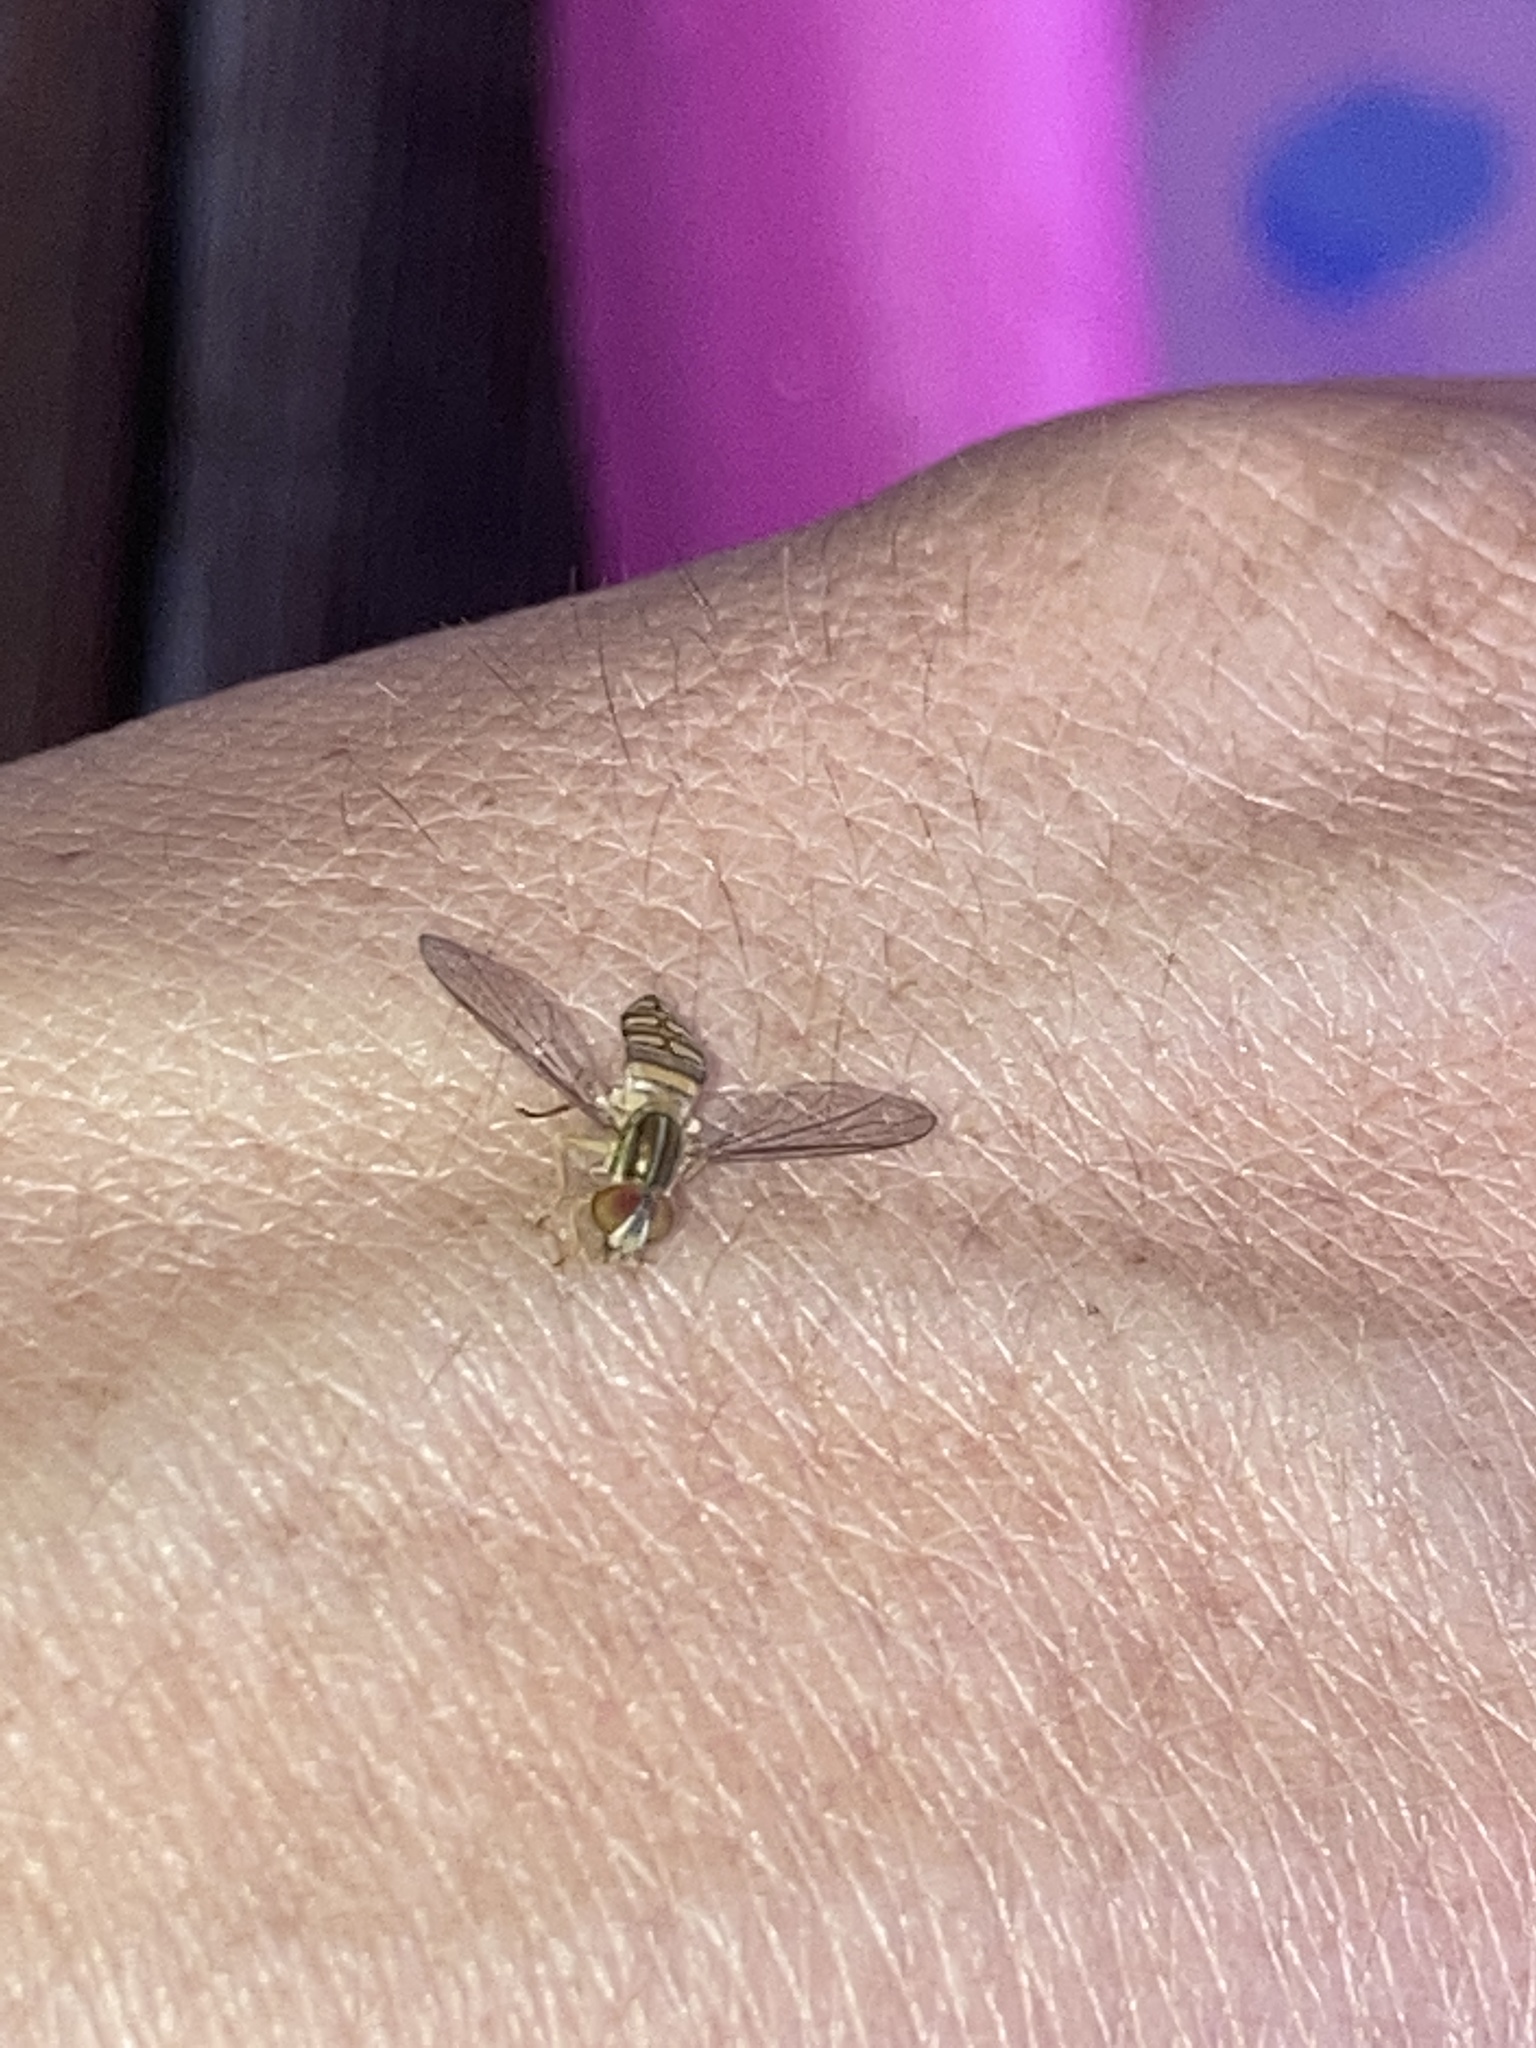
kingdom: Animalia
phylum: Arthropoda
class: Insecta
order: Diptera
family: Syrphidae
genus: Toxomerus
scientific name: Toxomerus politus
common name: Maize calligrapher
